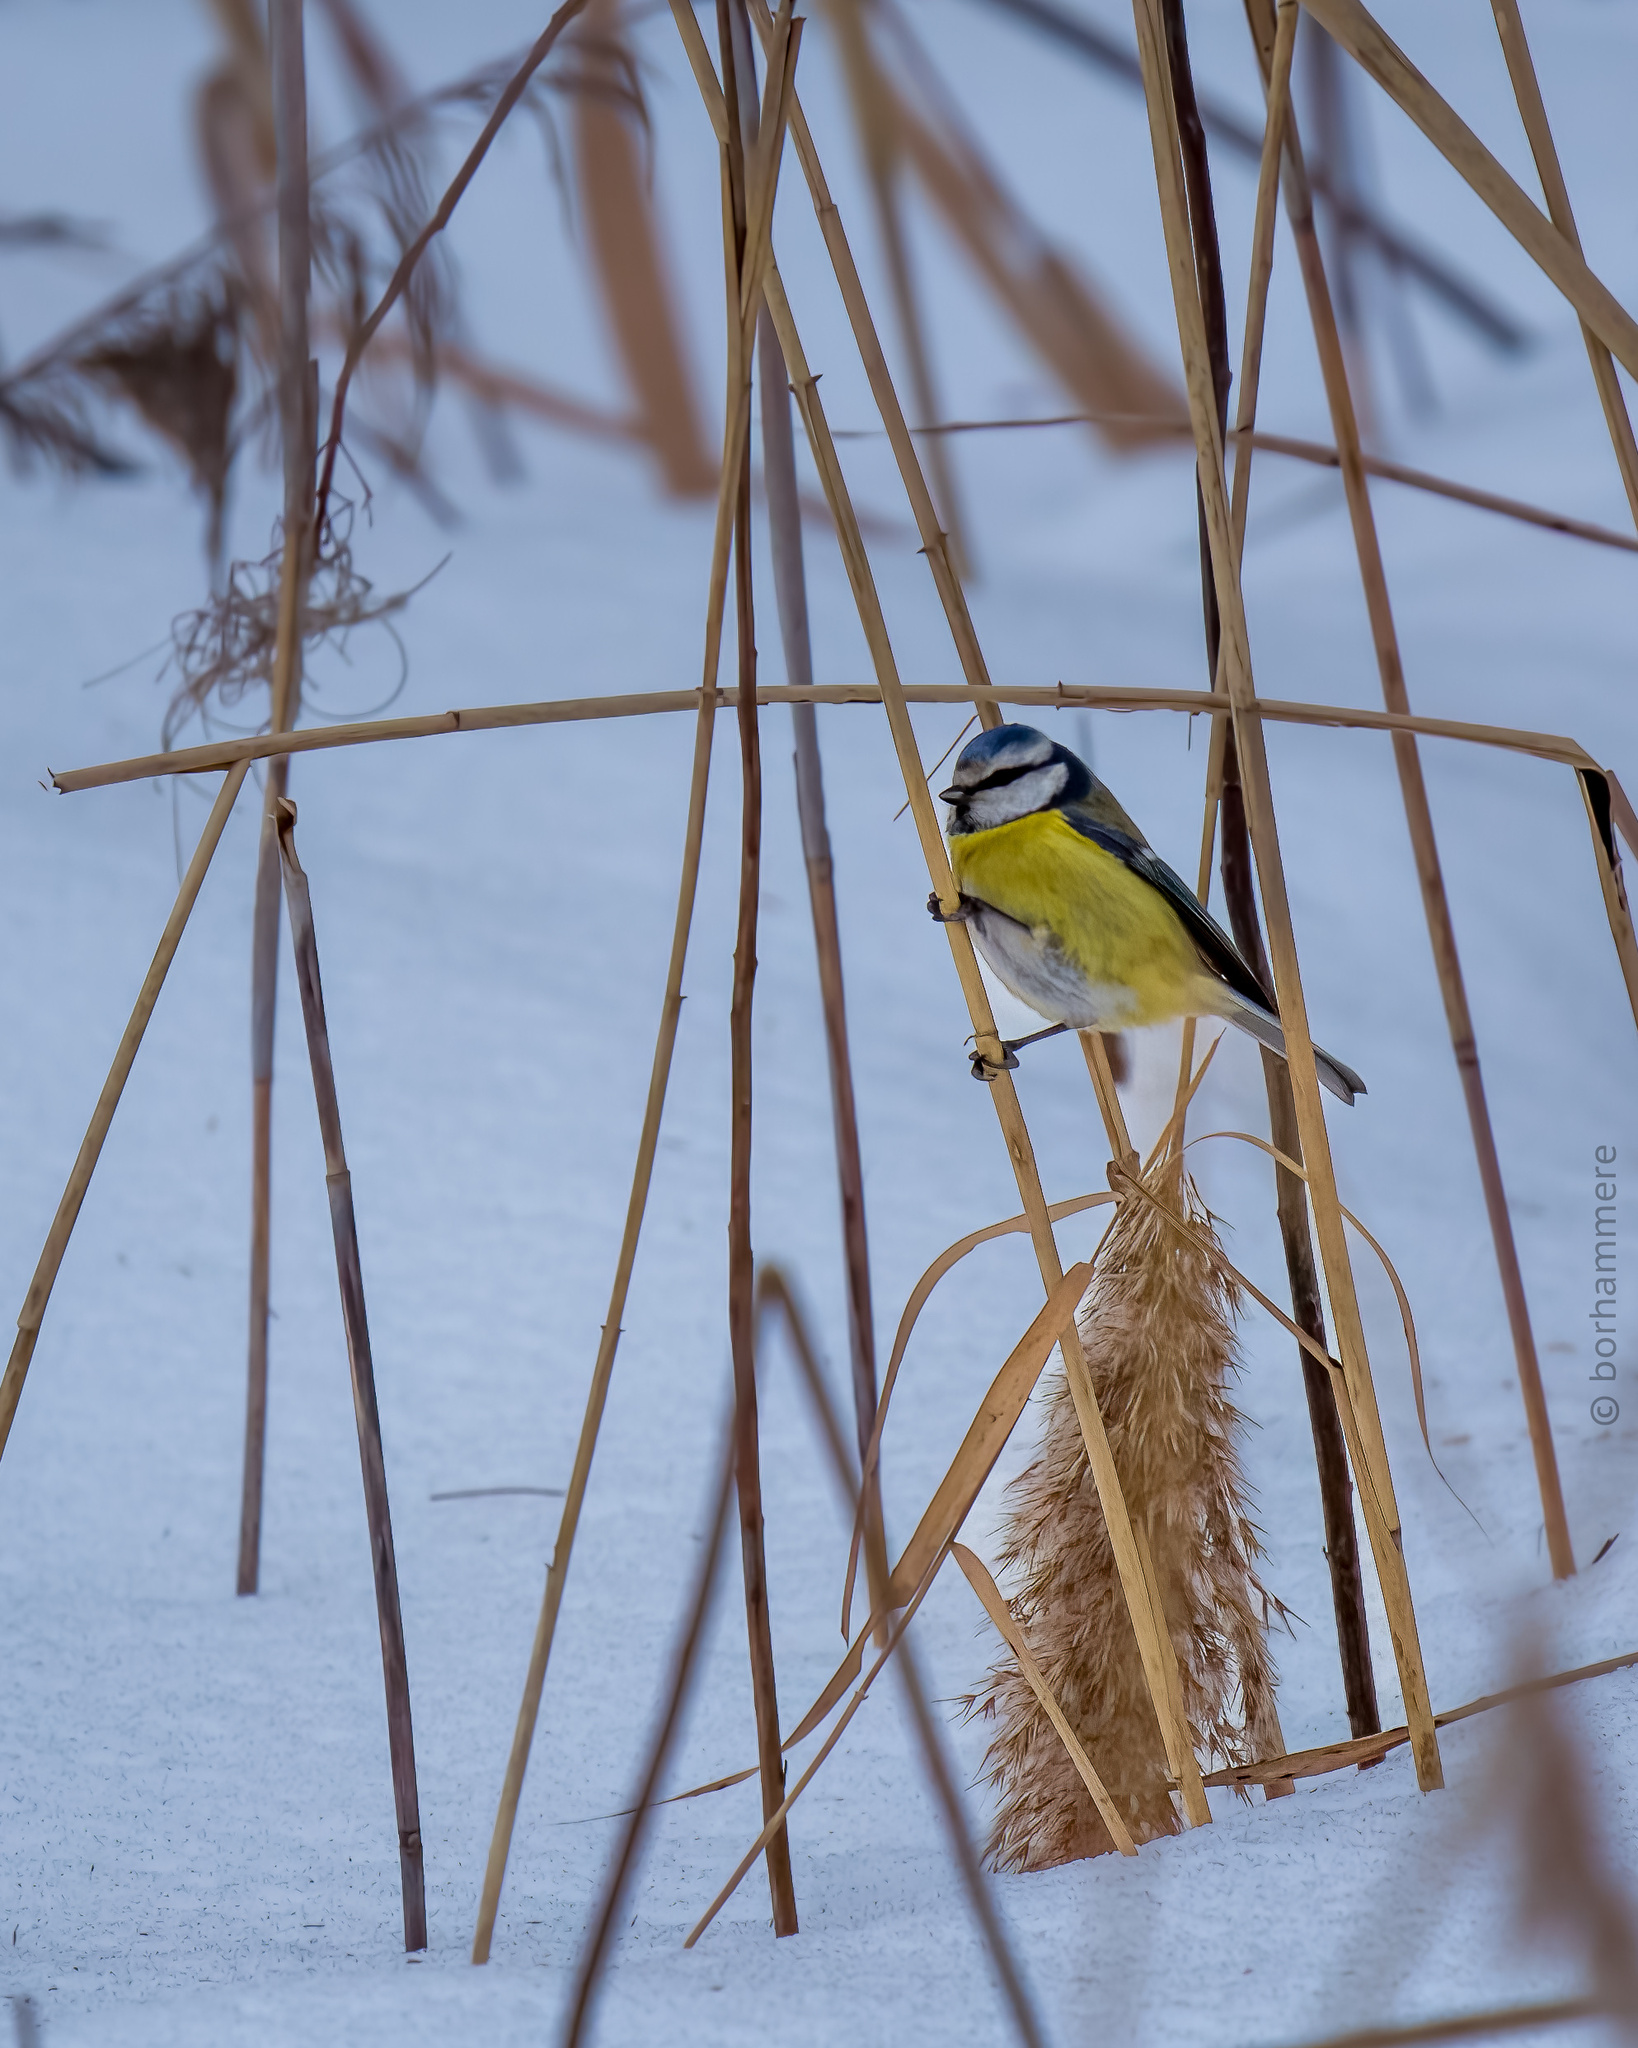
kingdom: Animalia
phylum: Chordata
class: Aves
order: Passeriformes
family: Paridae
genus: Cyanistes
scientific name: Cyanistes caeruleus
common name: Eurasian blue tit
